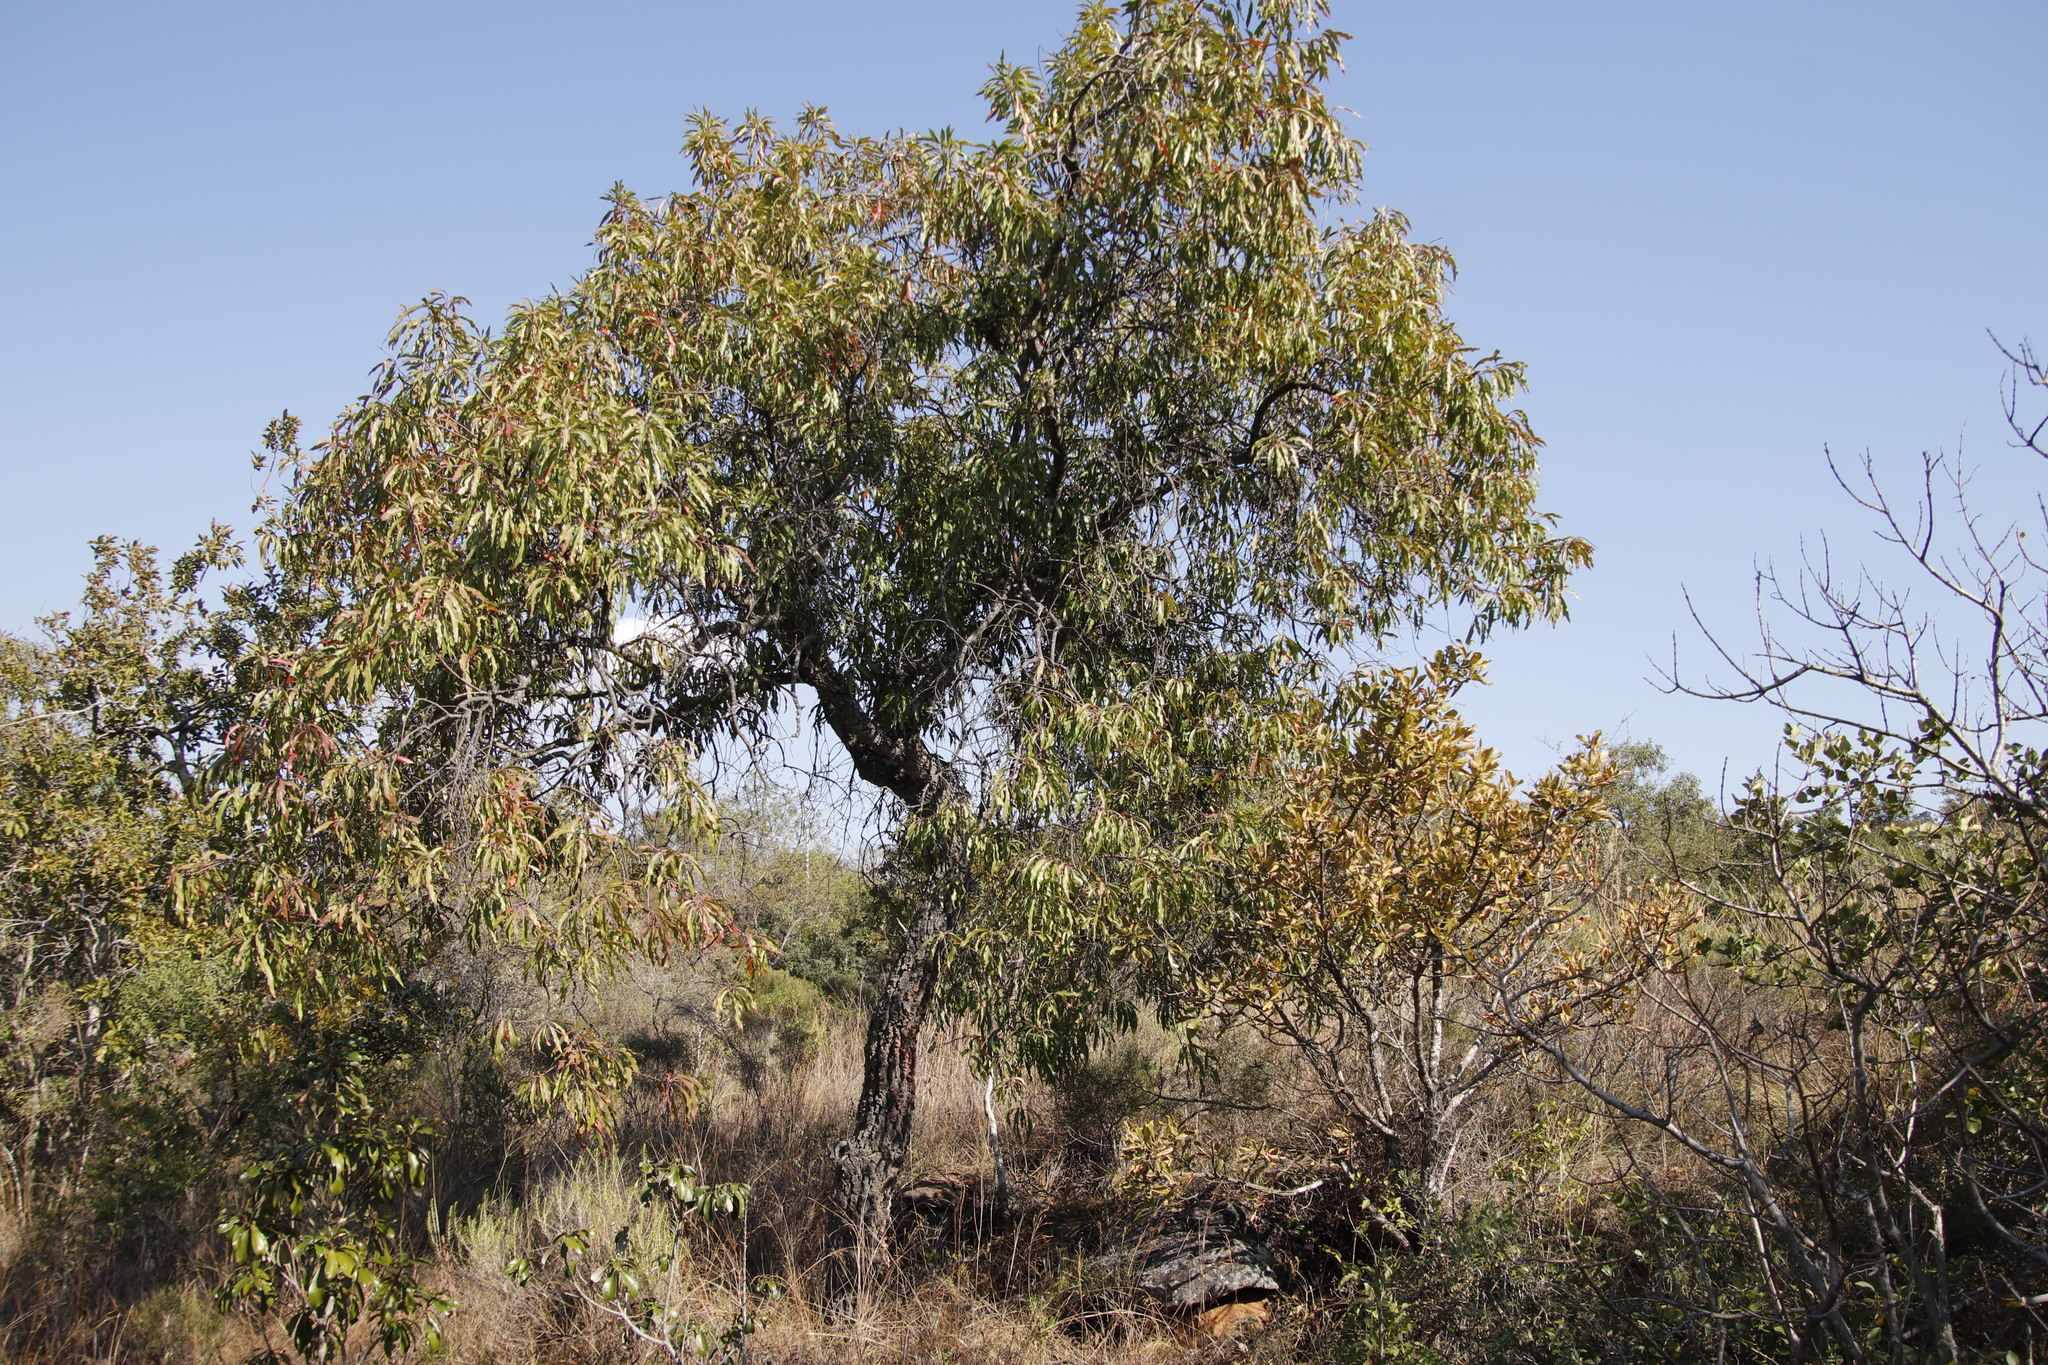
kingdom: Plantae
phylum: Tracheophyta
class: Magnoliopsida
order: Proteales
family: Proteaceae
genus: Faurea
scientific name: Faurea saligna
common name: African bean
